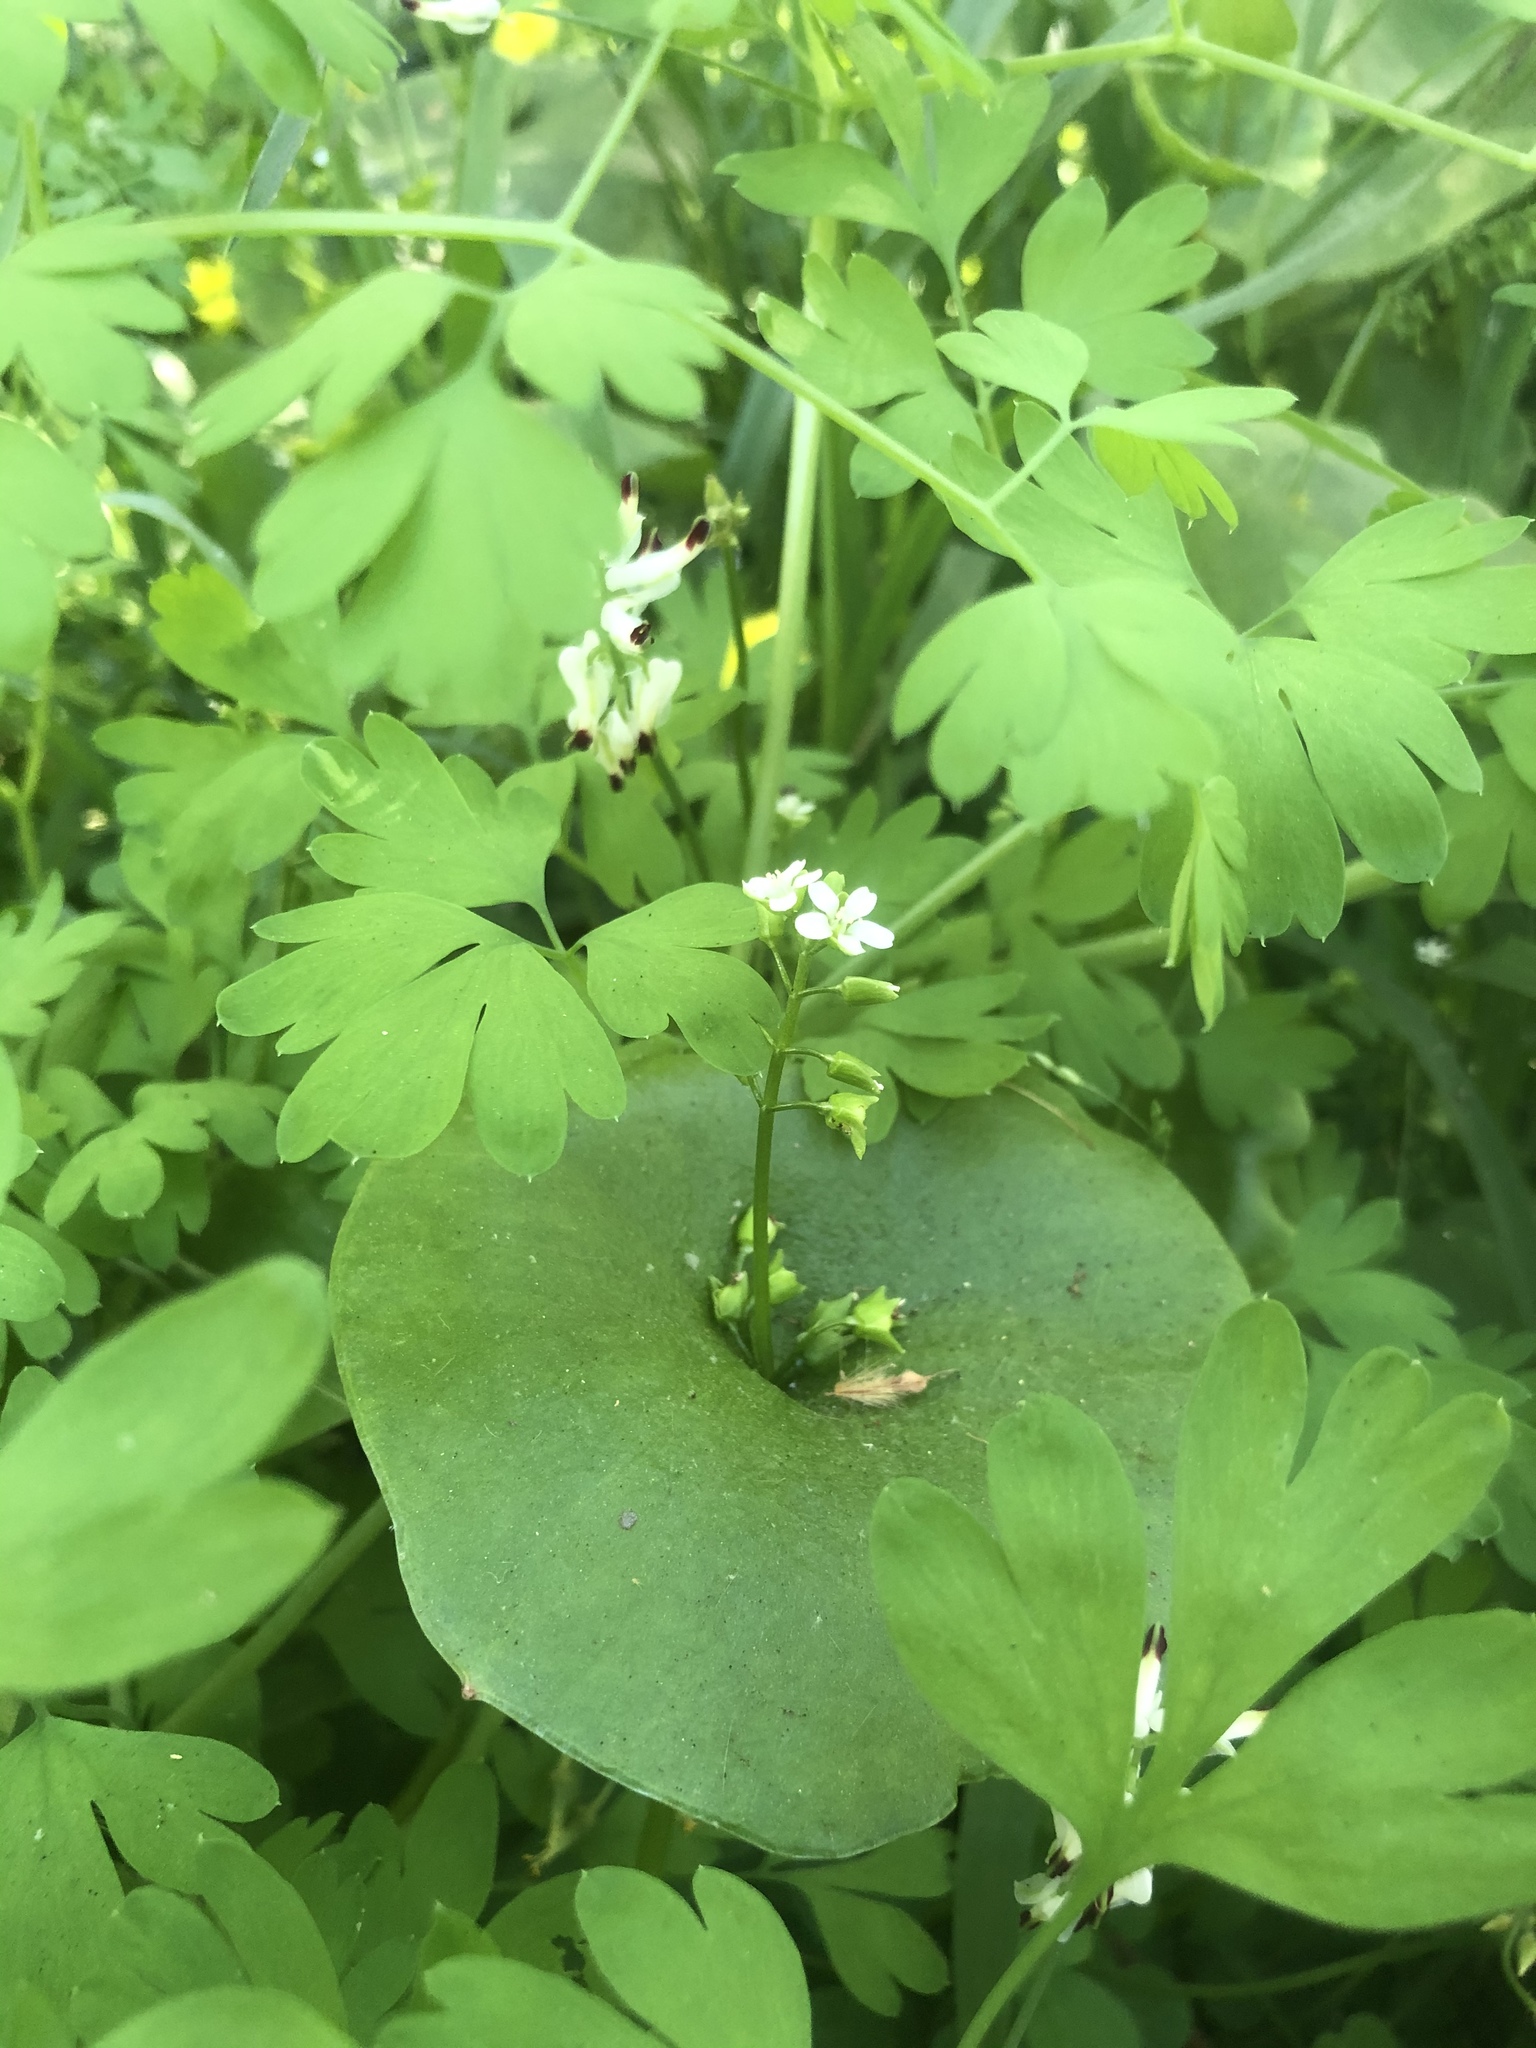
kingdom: Plantae
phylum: Tracheophyta
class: Magnoliopsida
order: Caryophyllales
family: Montiaceae
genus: Claytonia
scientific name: Claytonia perfoliata
